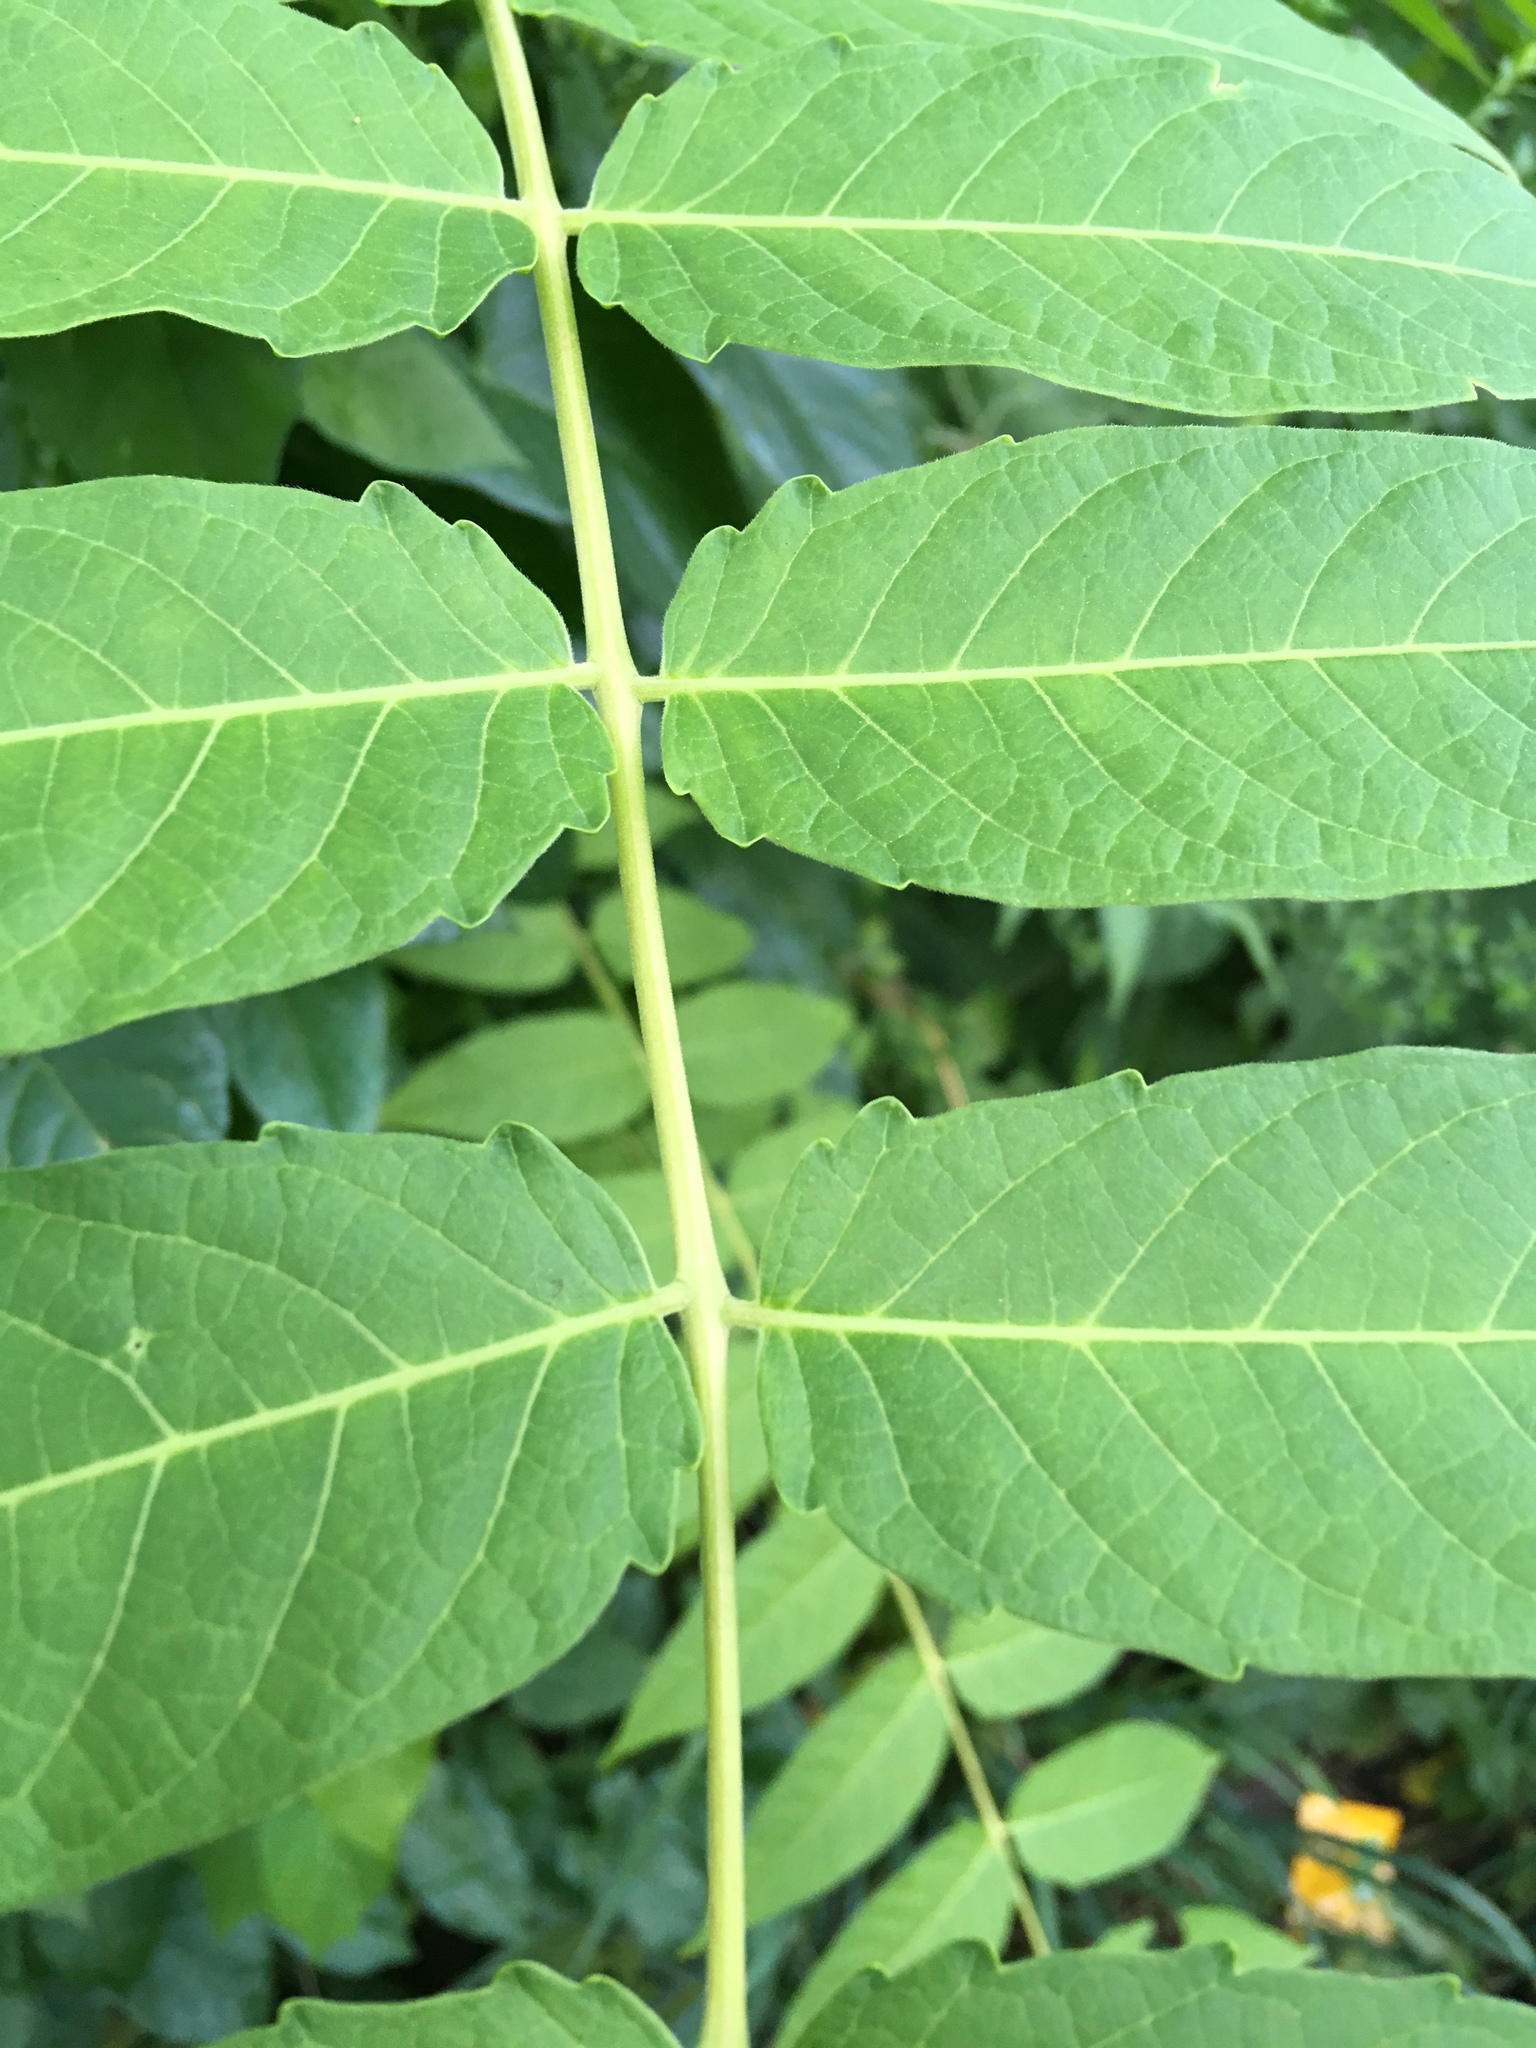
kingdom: Plantae
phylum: Tracheophyta
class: Magnoliopsida
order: Sapindales
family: Simaroubaceae
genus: Ailanthus
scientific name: Ailanthus altissima
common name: Tree-of-heaven
